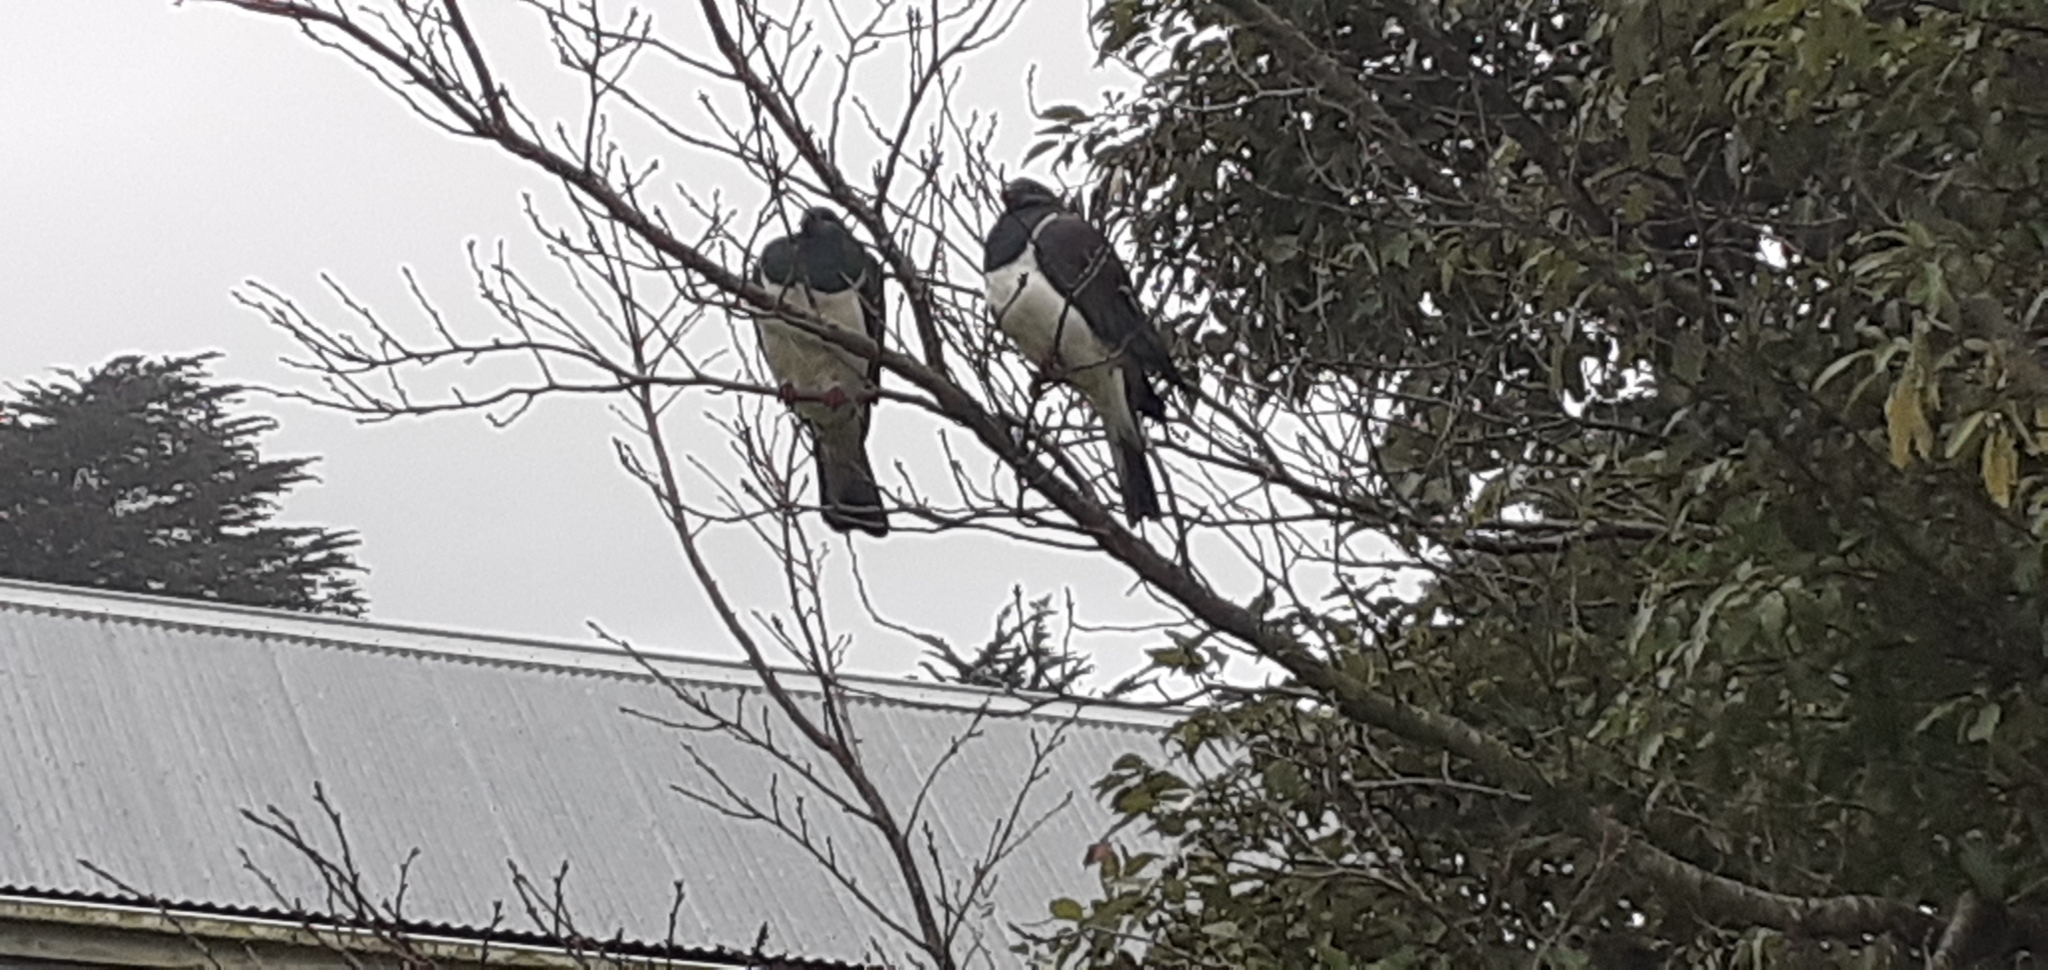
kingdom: Animalia
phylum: Chordata
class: Aves
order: Columbiformes
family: Columbidae
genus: Hemiphaga
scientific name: Hemiphaga novaeseelandiae
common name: New zealand pigeon
